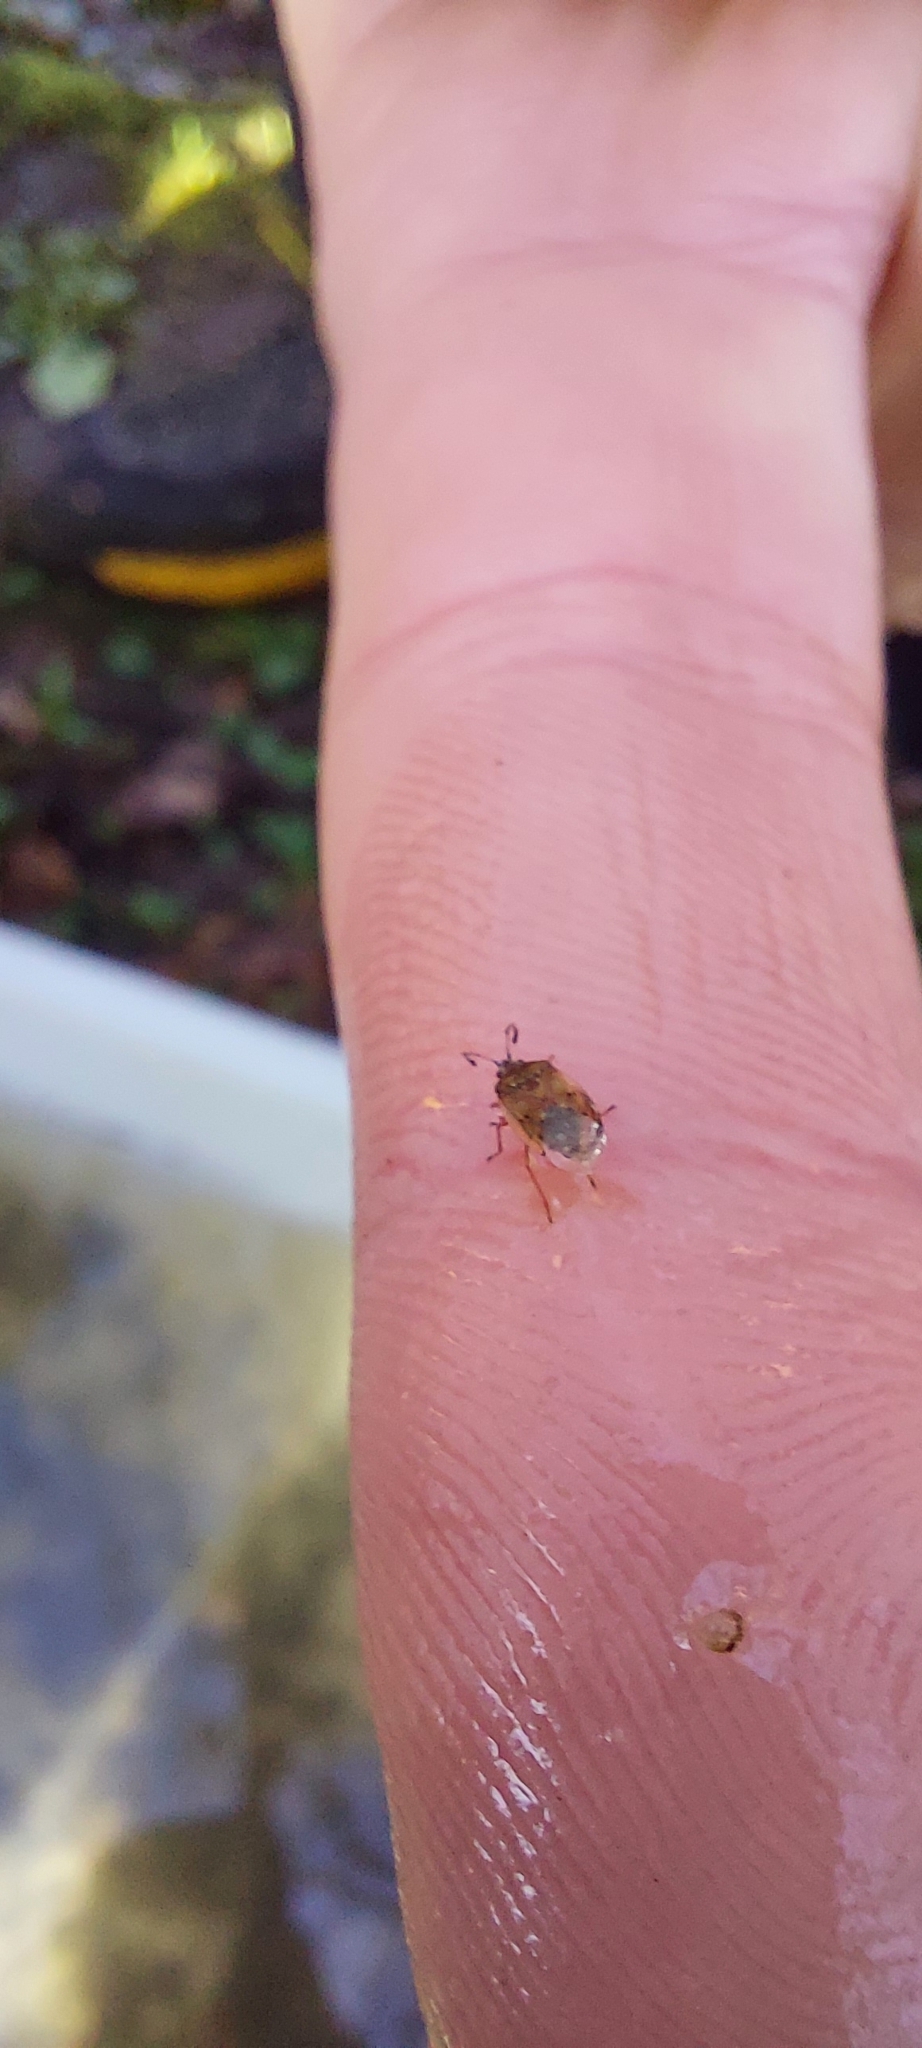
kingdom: Animalia
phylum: Arthropoda
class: Insecta
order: Hemiptera
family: Lygaeidae
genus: Kleidocerys
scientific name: Kleidocerys resedae
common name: Birch catkin bug
